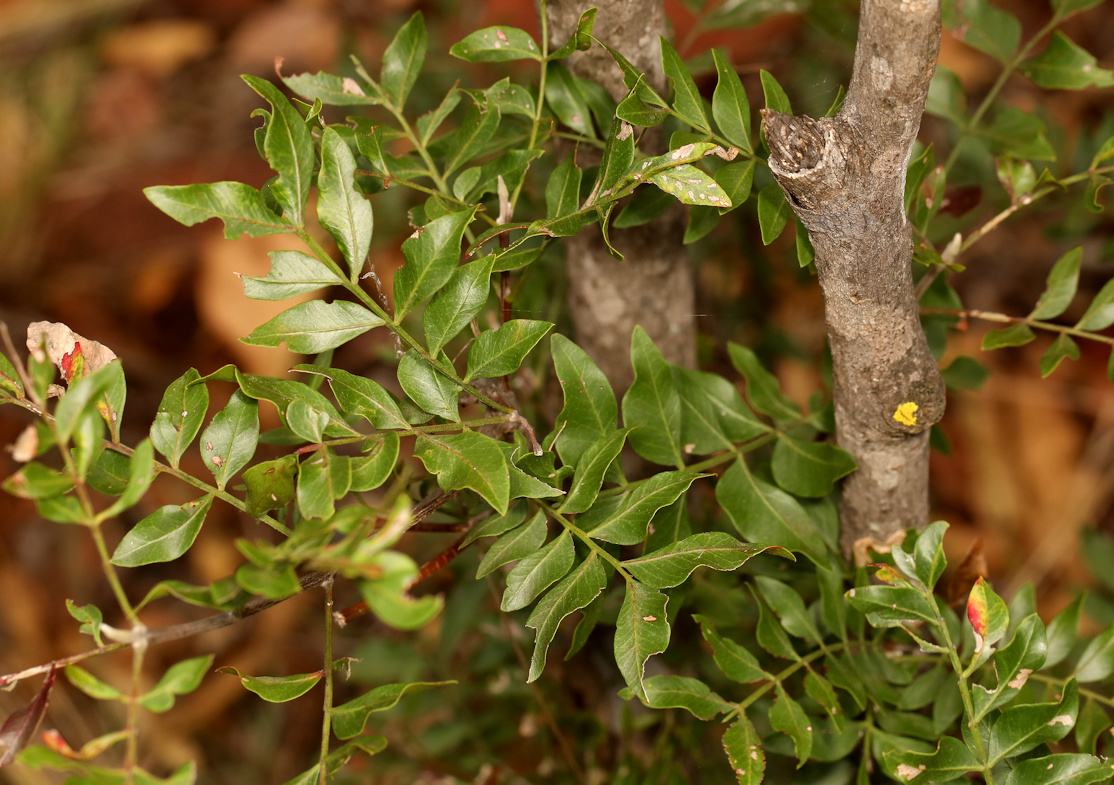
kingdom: Plantae
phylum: Tracheophyta
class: Magnoliopsida
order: Sapindales
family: Rutaceae
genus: Ptaeroxylon
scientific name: Ptaeroxylon obliquum
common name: Sneezewood
